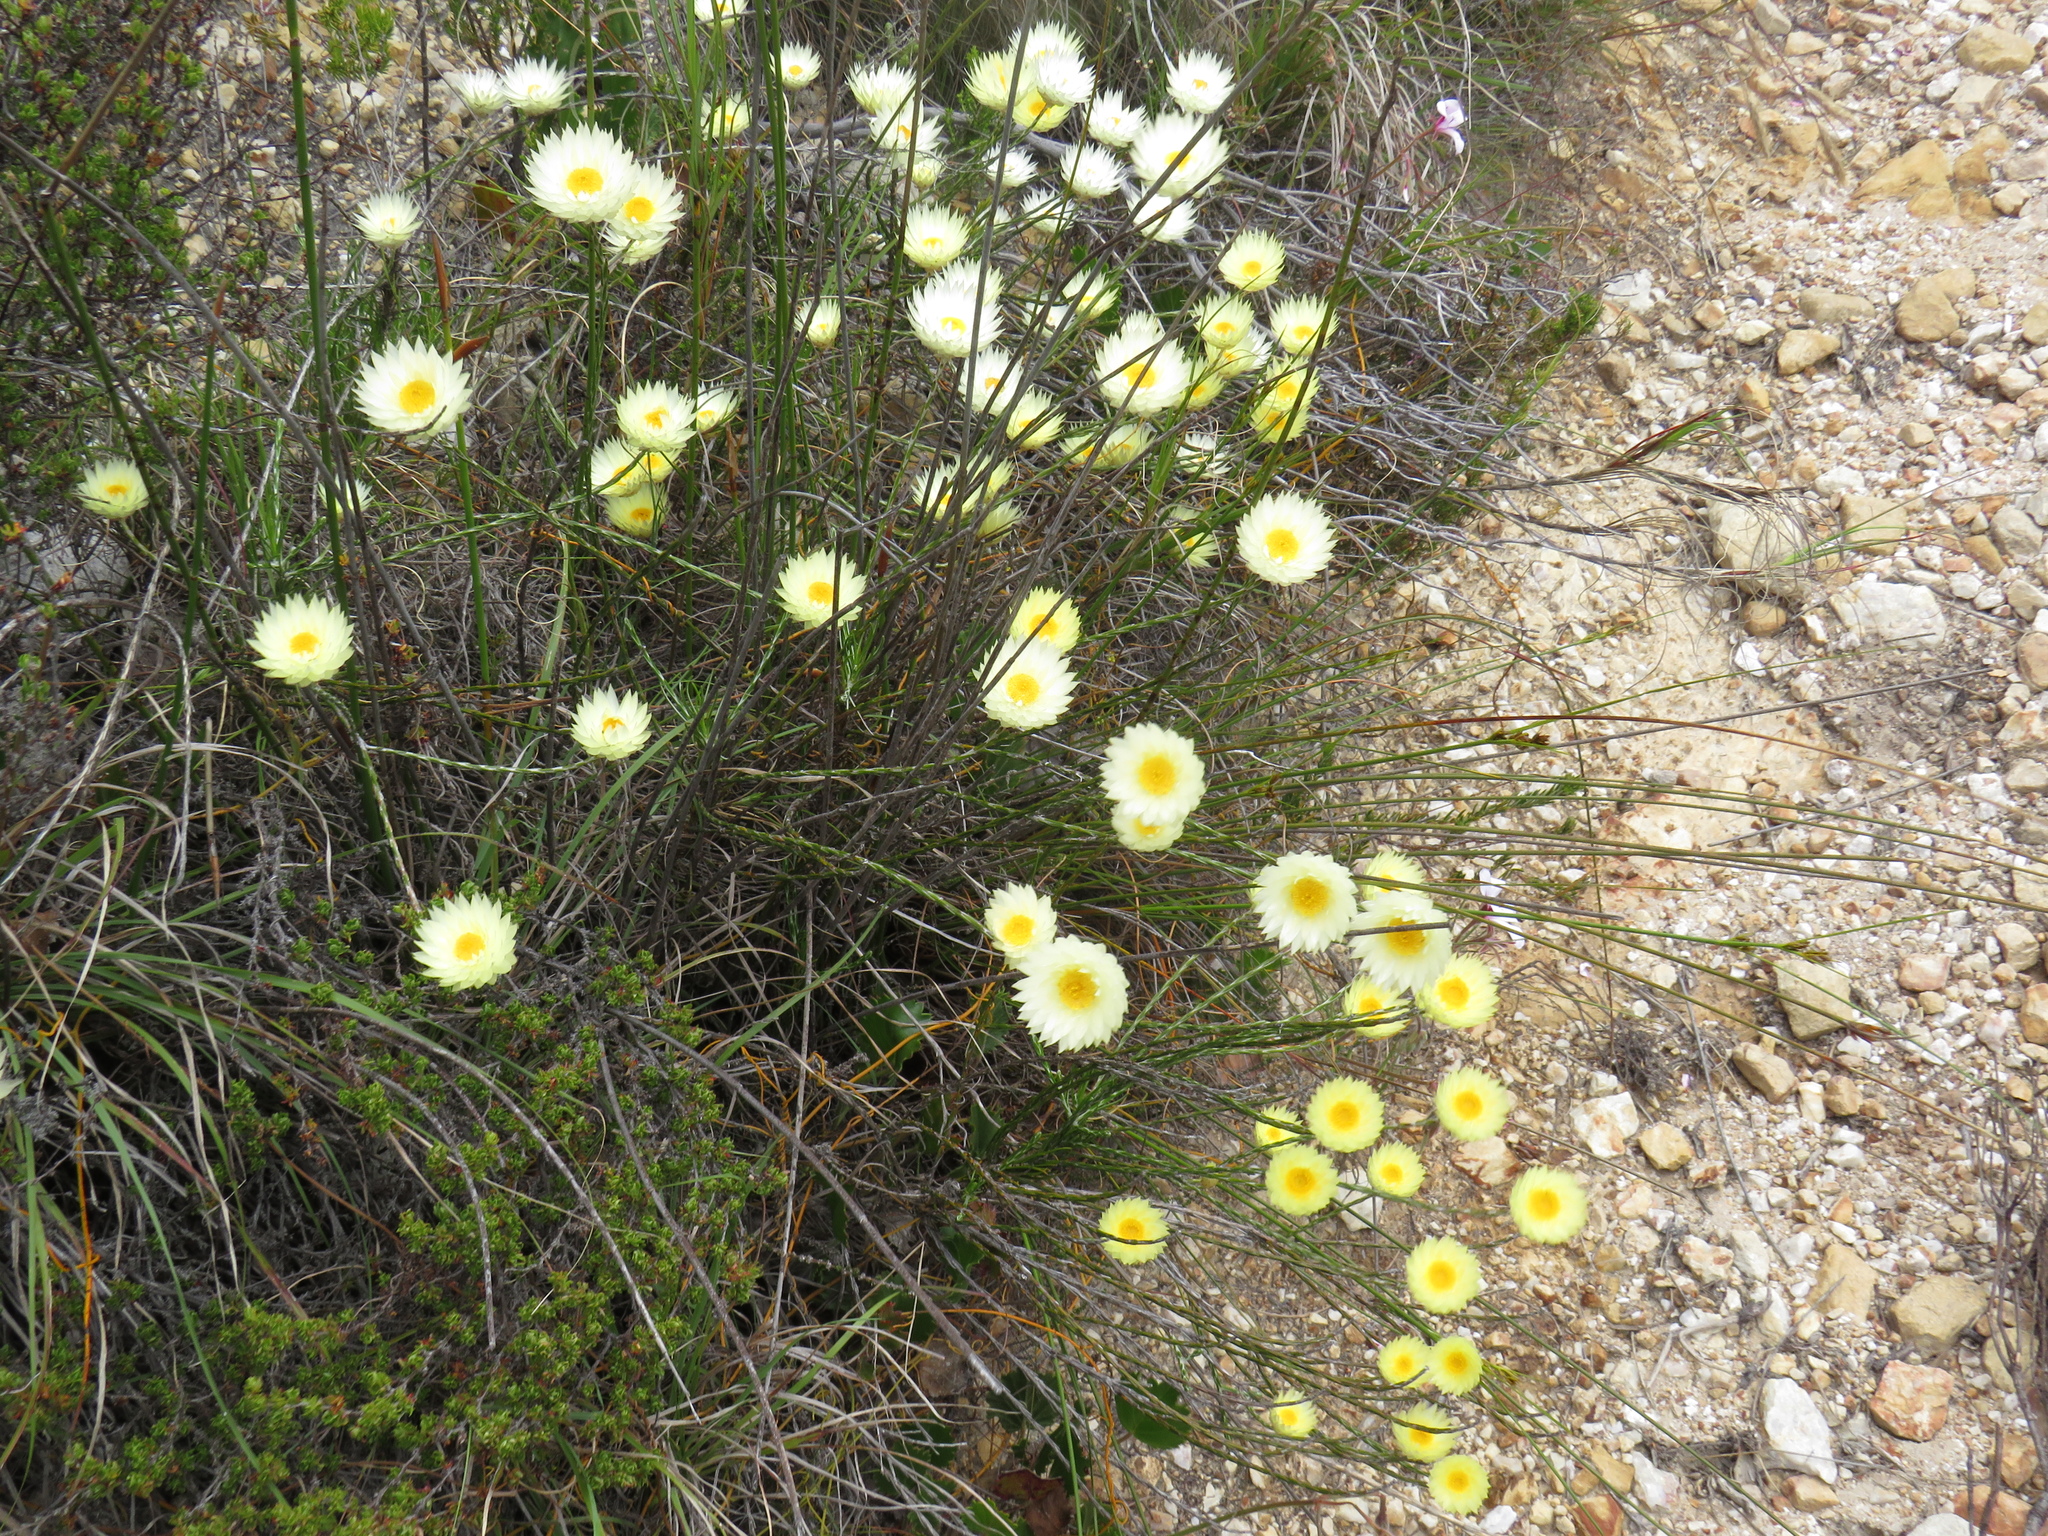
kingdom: Plantae
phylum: Tracheophyta
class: Magnoliopsida
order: Asterales
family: Asteraceae
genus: Edmondia
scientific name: Edmondia sesamoides
